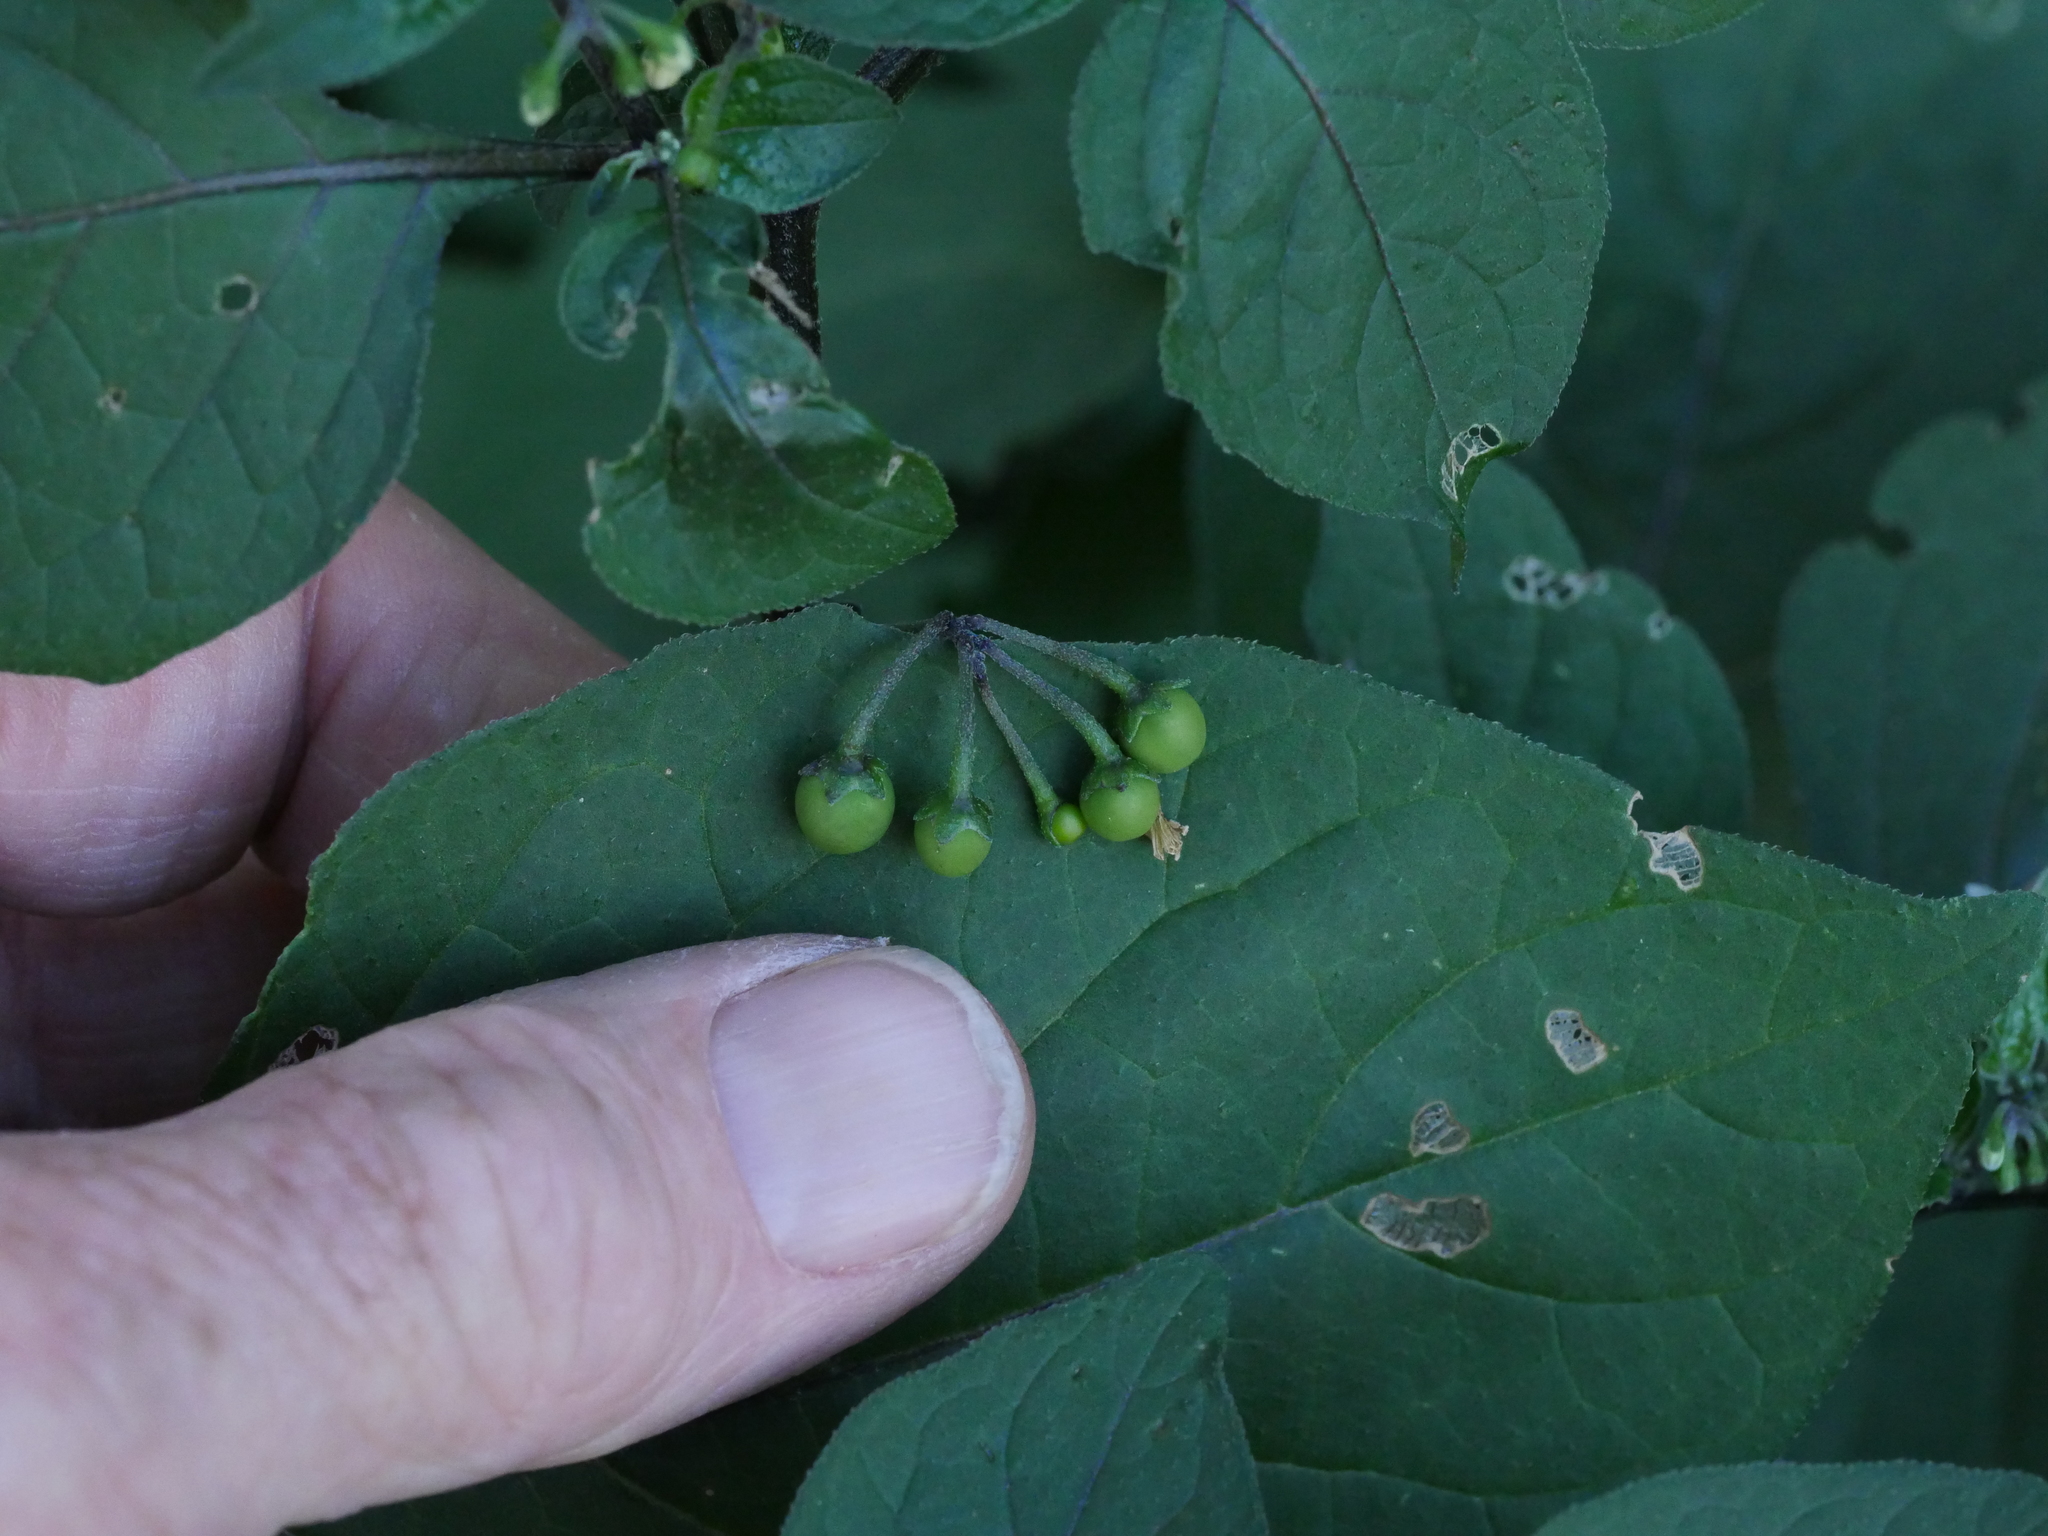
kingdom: Plantae
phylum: Tracheophyta
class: Magnoliopsida
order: Solanales
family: Solanaceae
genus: Solanum
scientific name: Solanum nigrum
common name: Black nightshade
